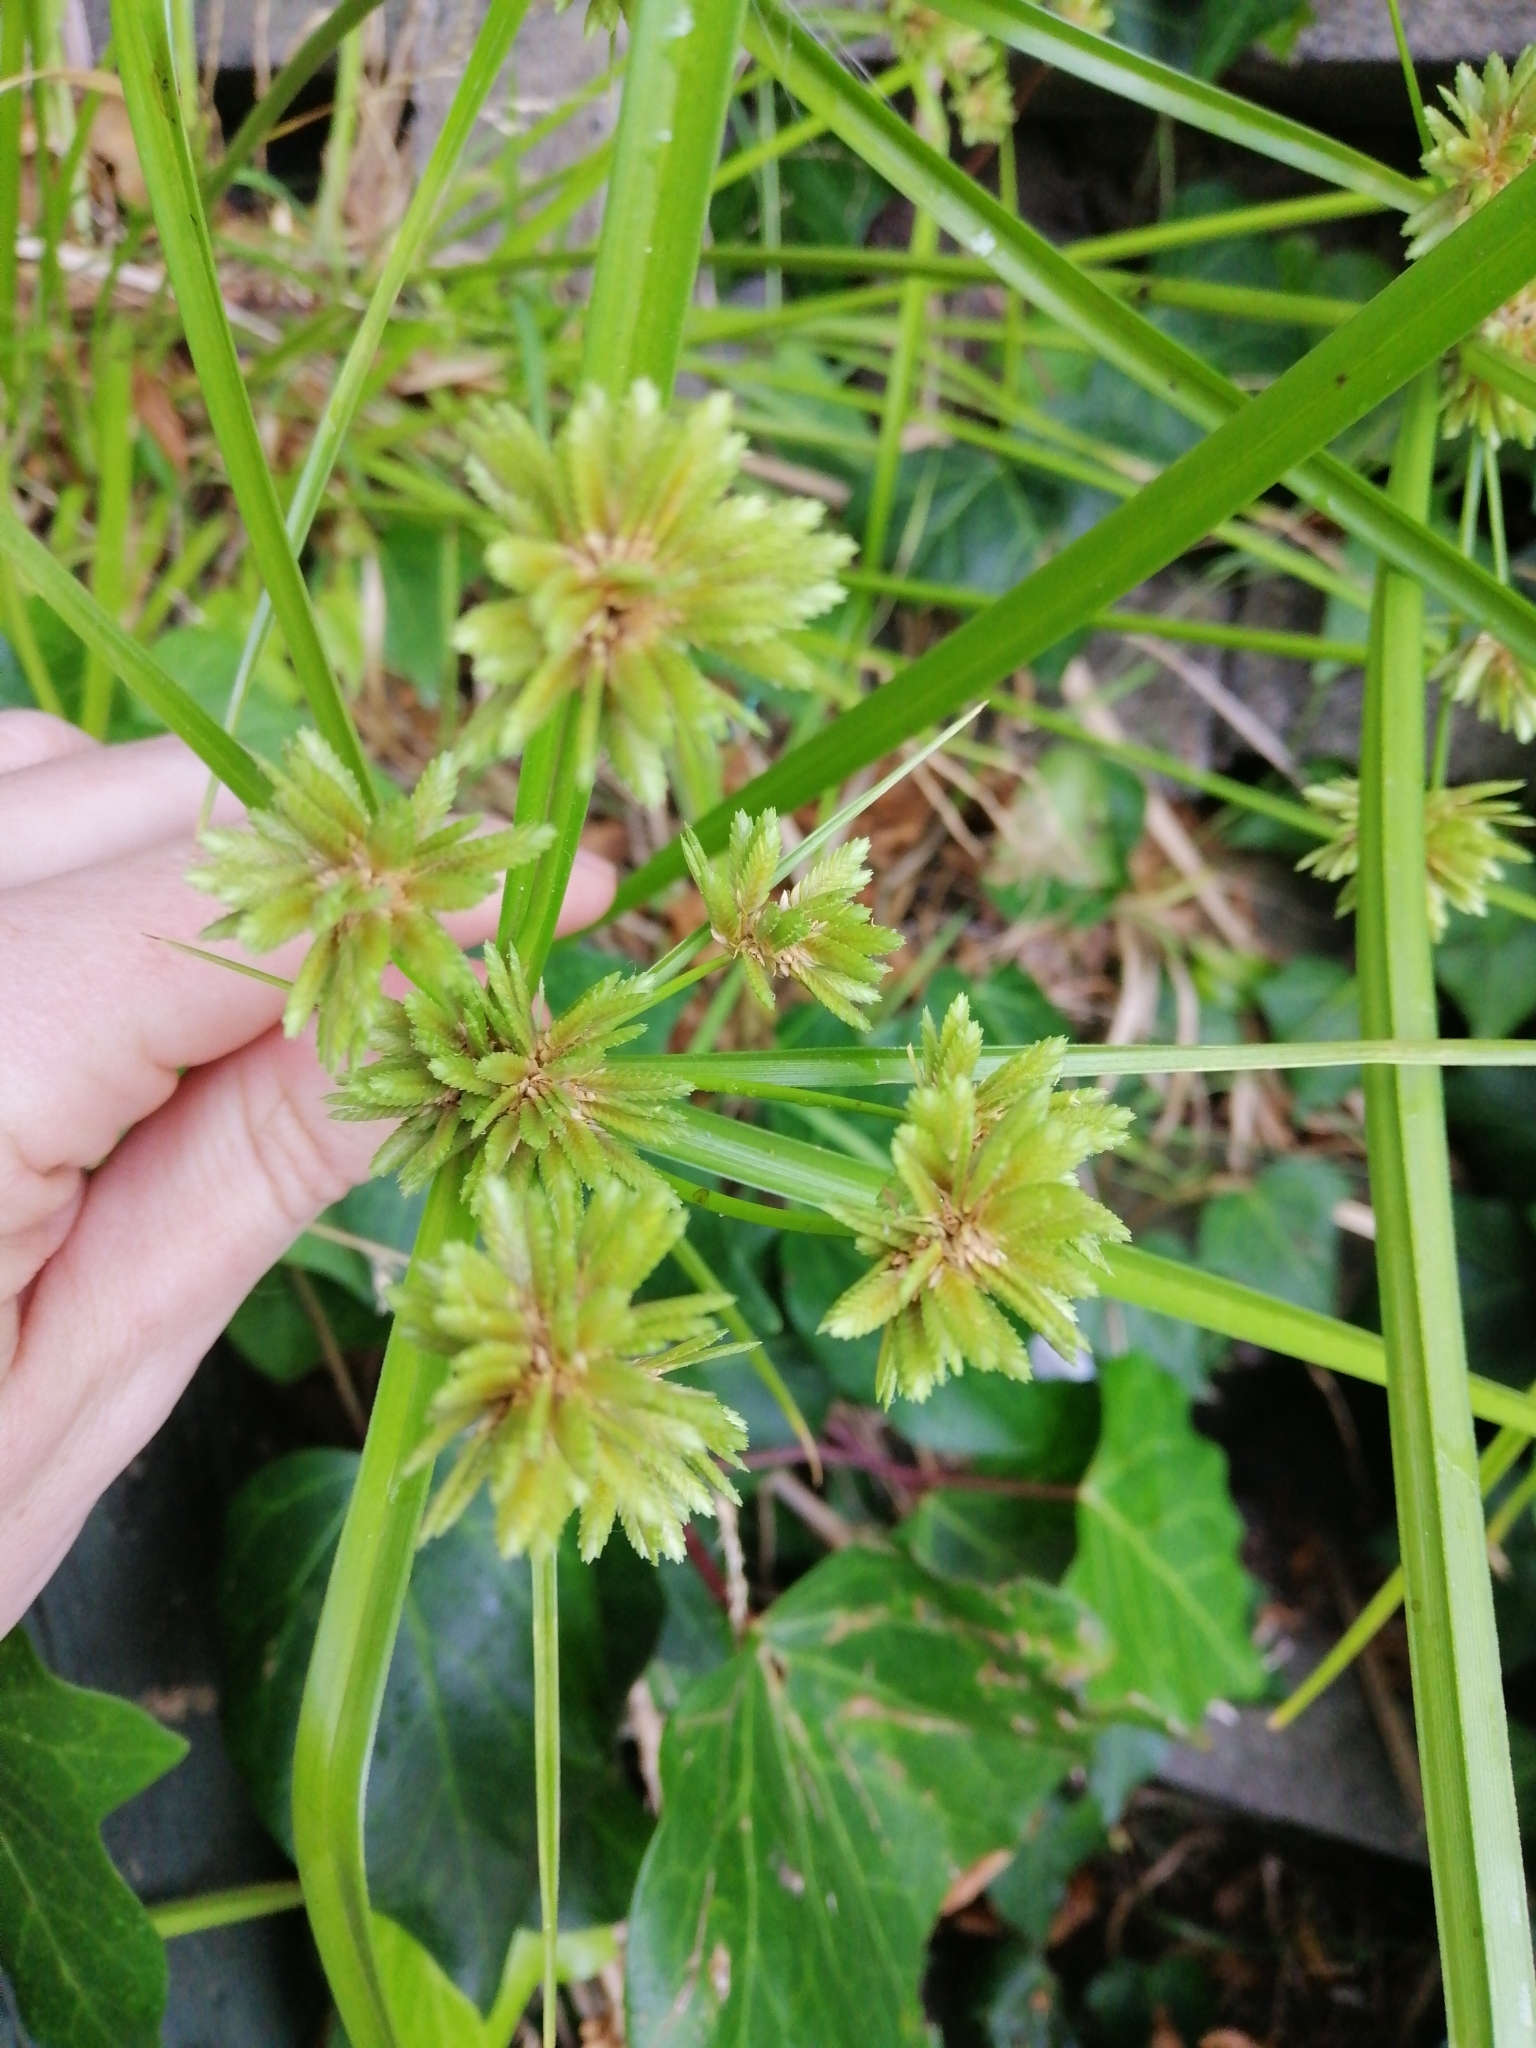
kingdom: Plantae
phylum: Tracheophyta
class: Liliopsida
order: Poales
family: Cyperaceae
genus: Cyperus
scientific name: Cyperus eragrostis
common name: Tall flatsedge
